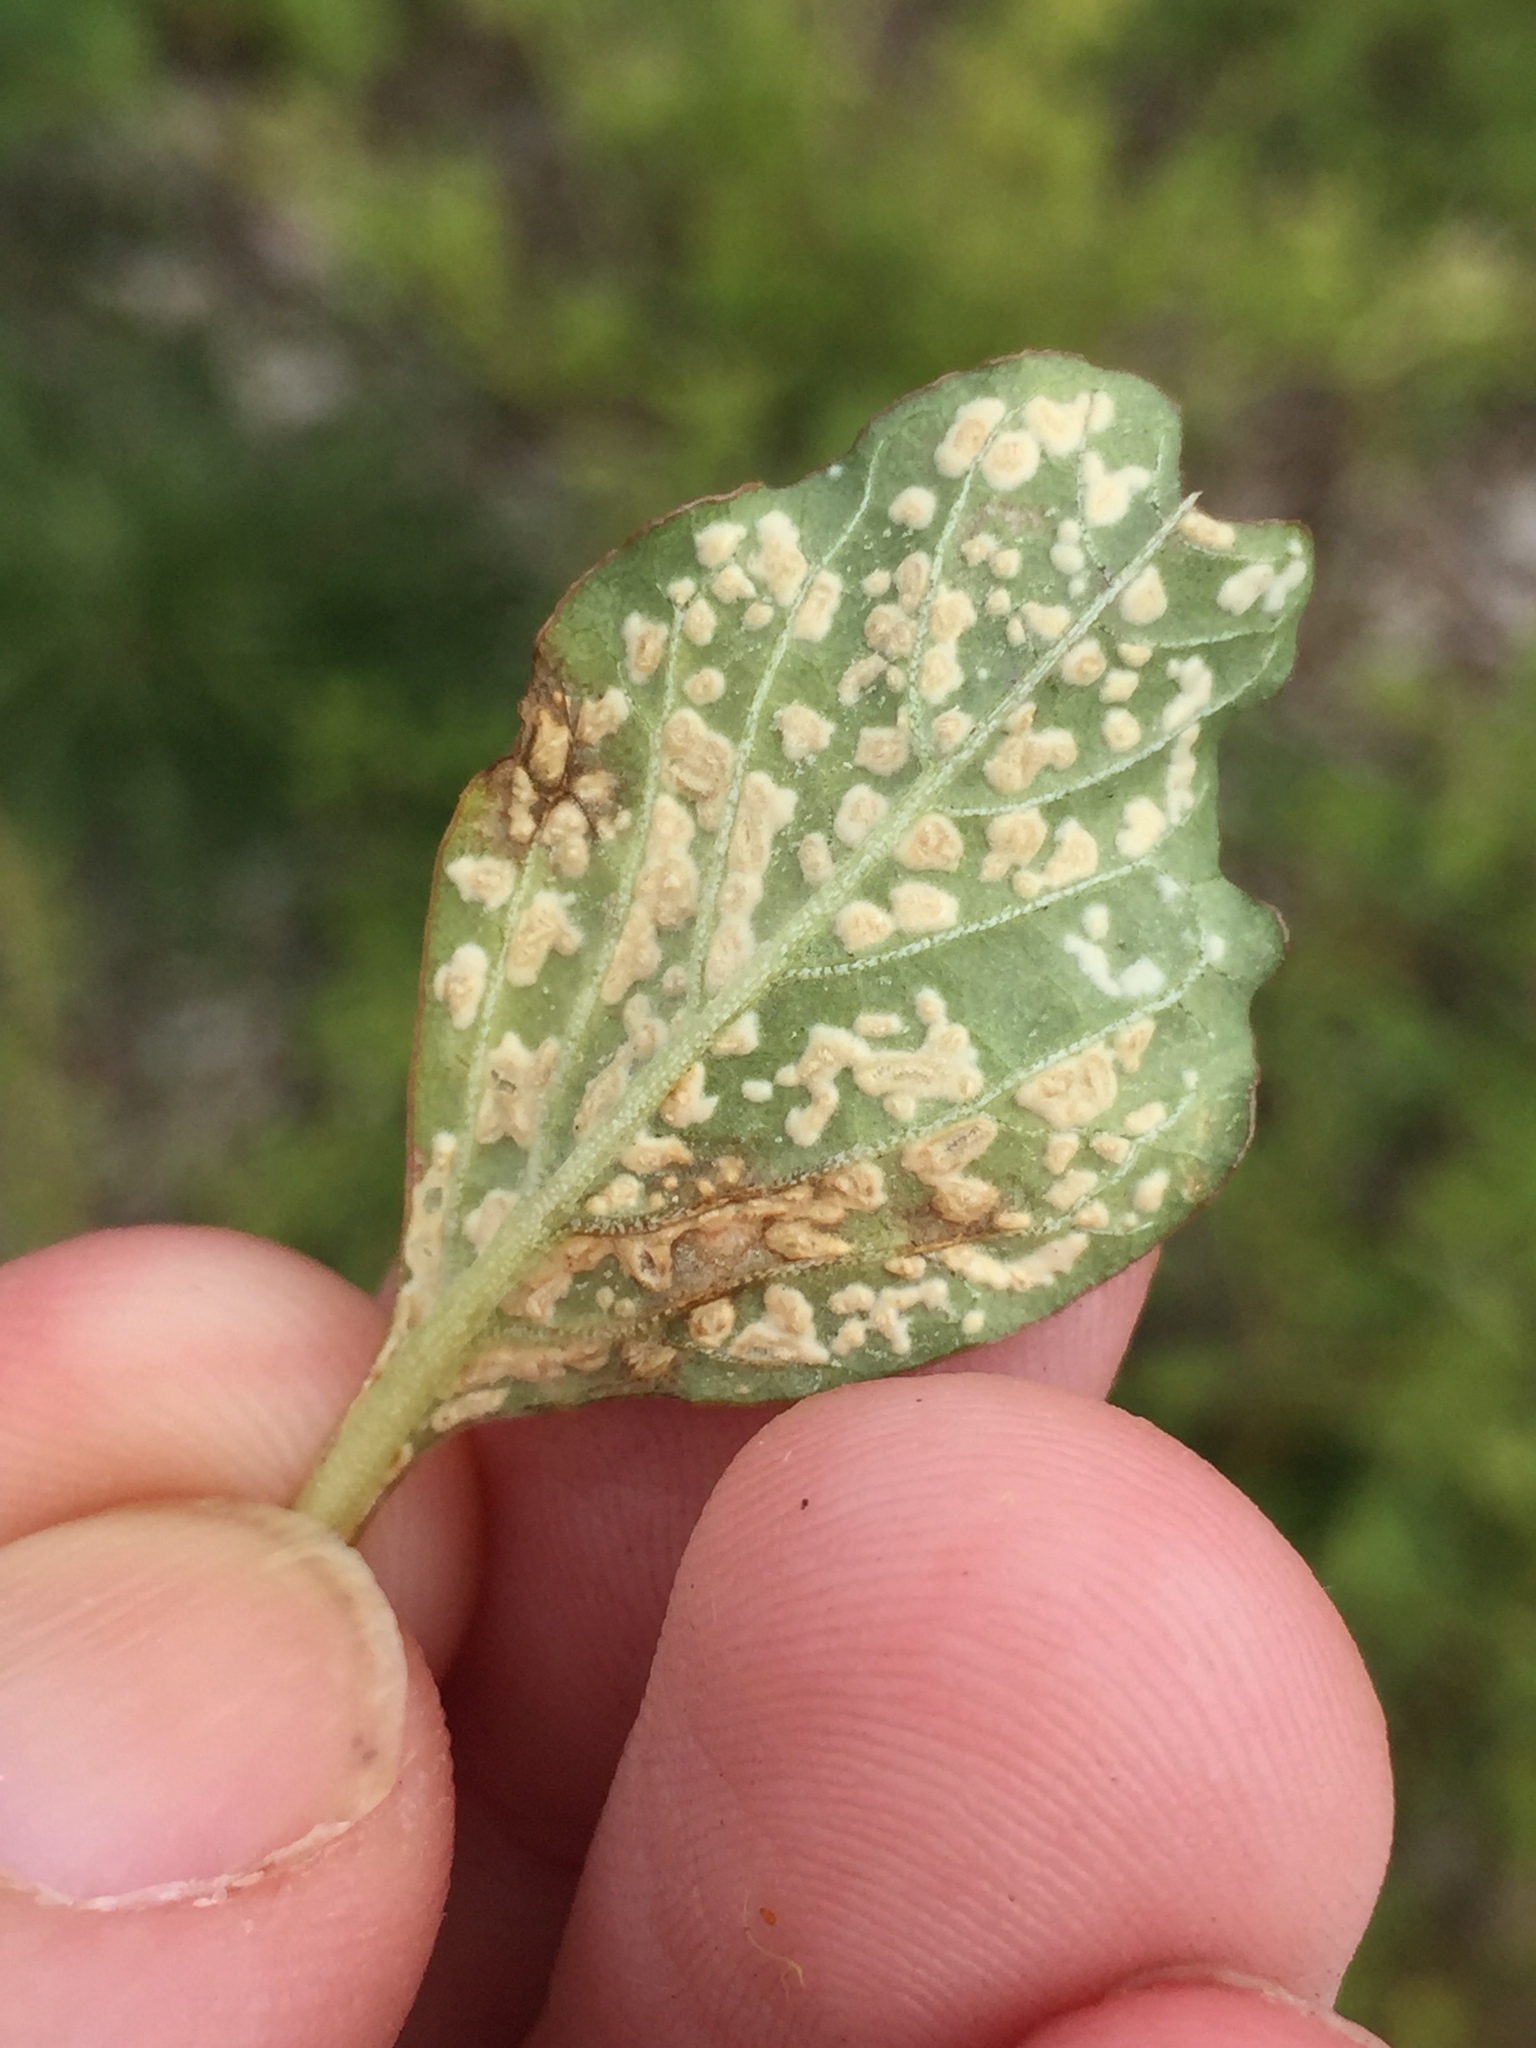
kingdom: Chromista
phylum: Oomycota
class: Peronosporea
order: Albuginales
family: Albuginaceae
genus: Wilsoniana
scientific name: Wilsoniana bliti
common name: White blister rust disease
